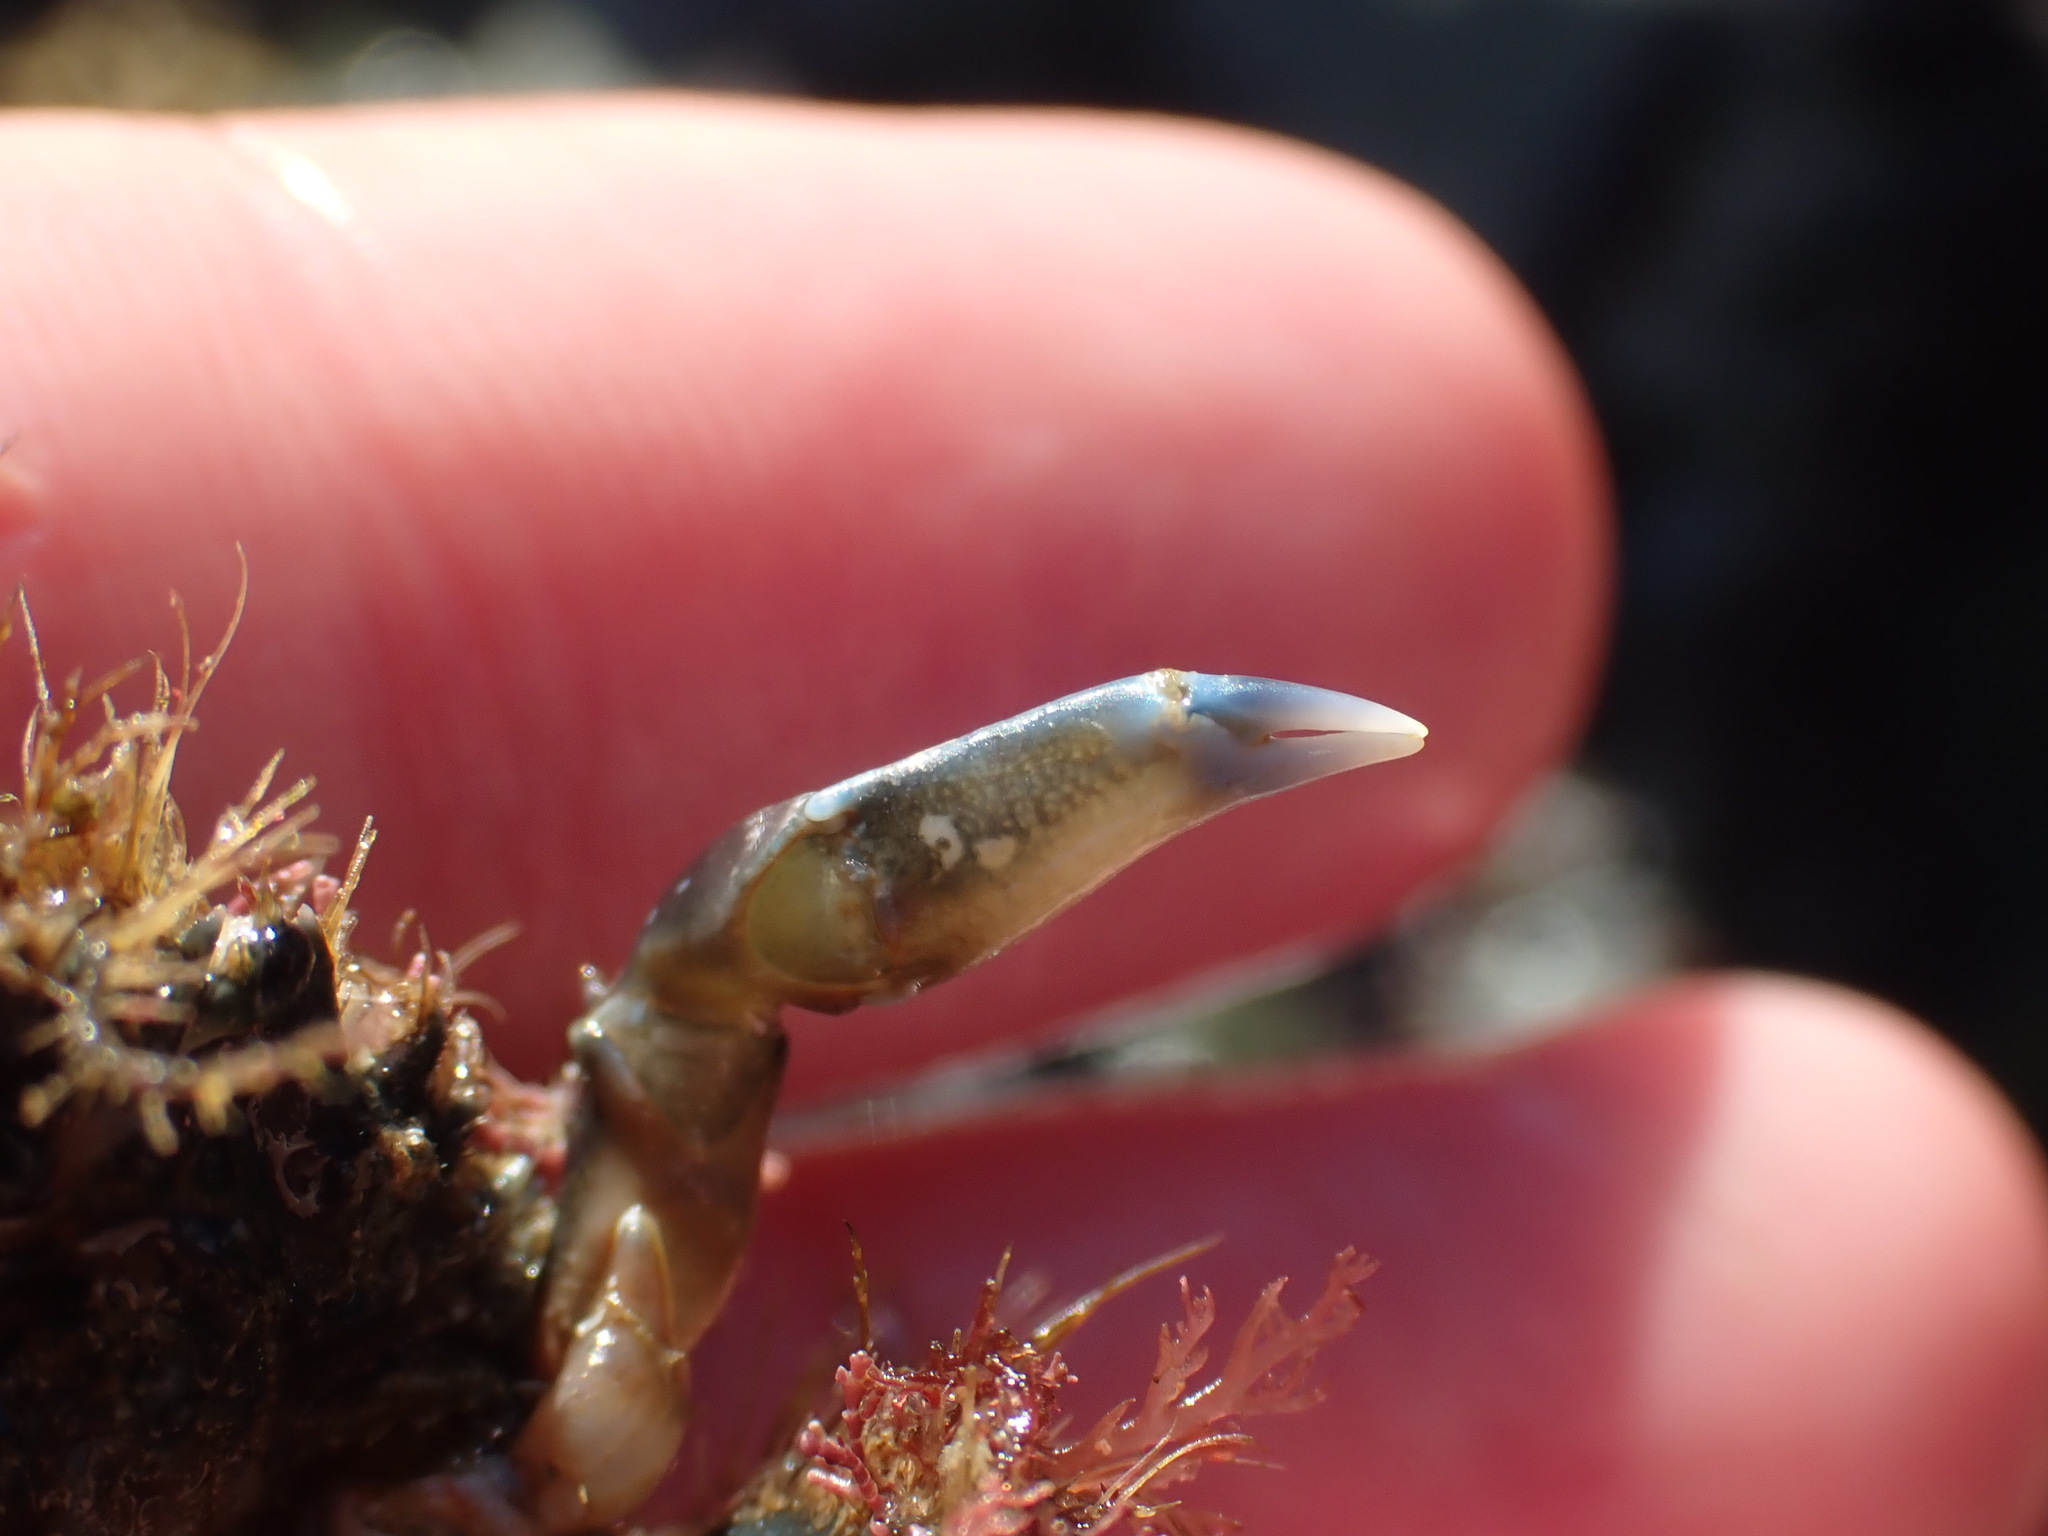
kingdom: Animalia
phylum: Arthropoda
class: Malacostraca
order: Decapoda
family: Majidae
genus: Notomithrax
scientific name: Notomithrax minor
